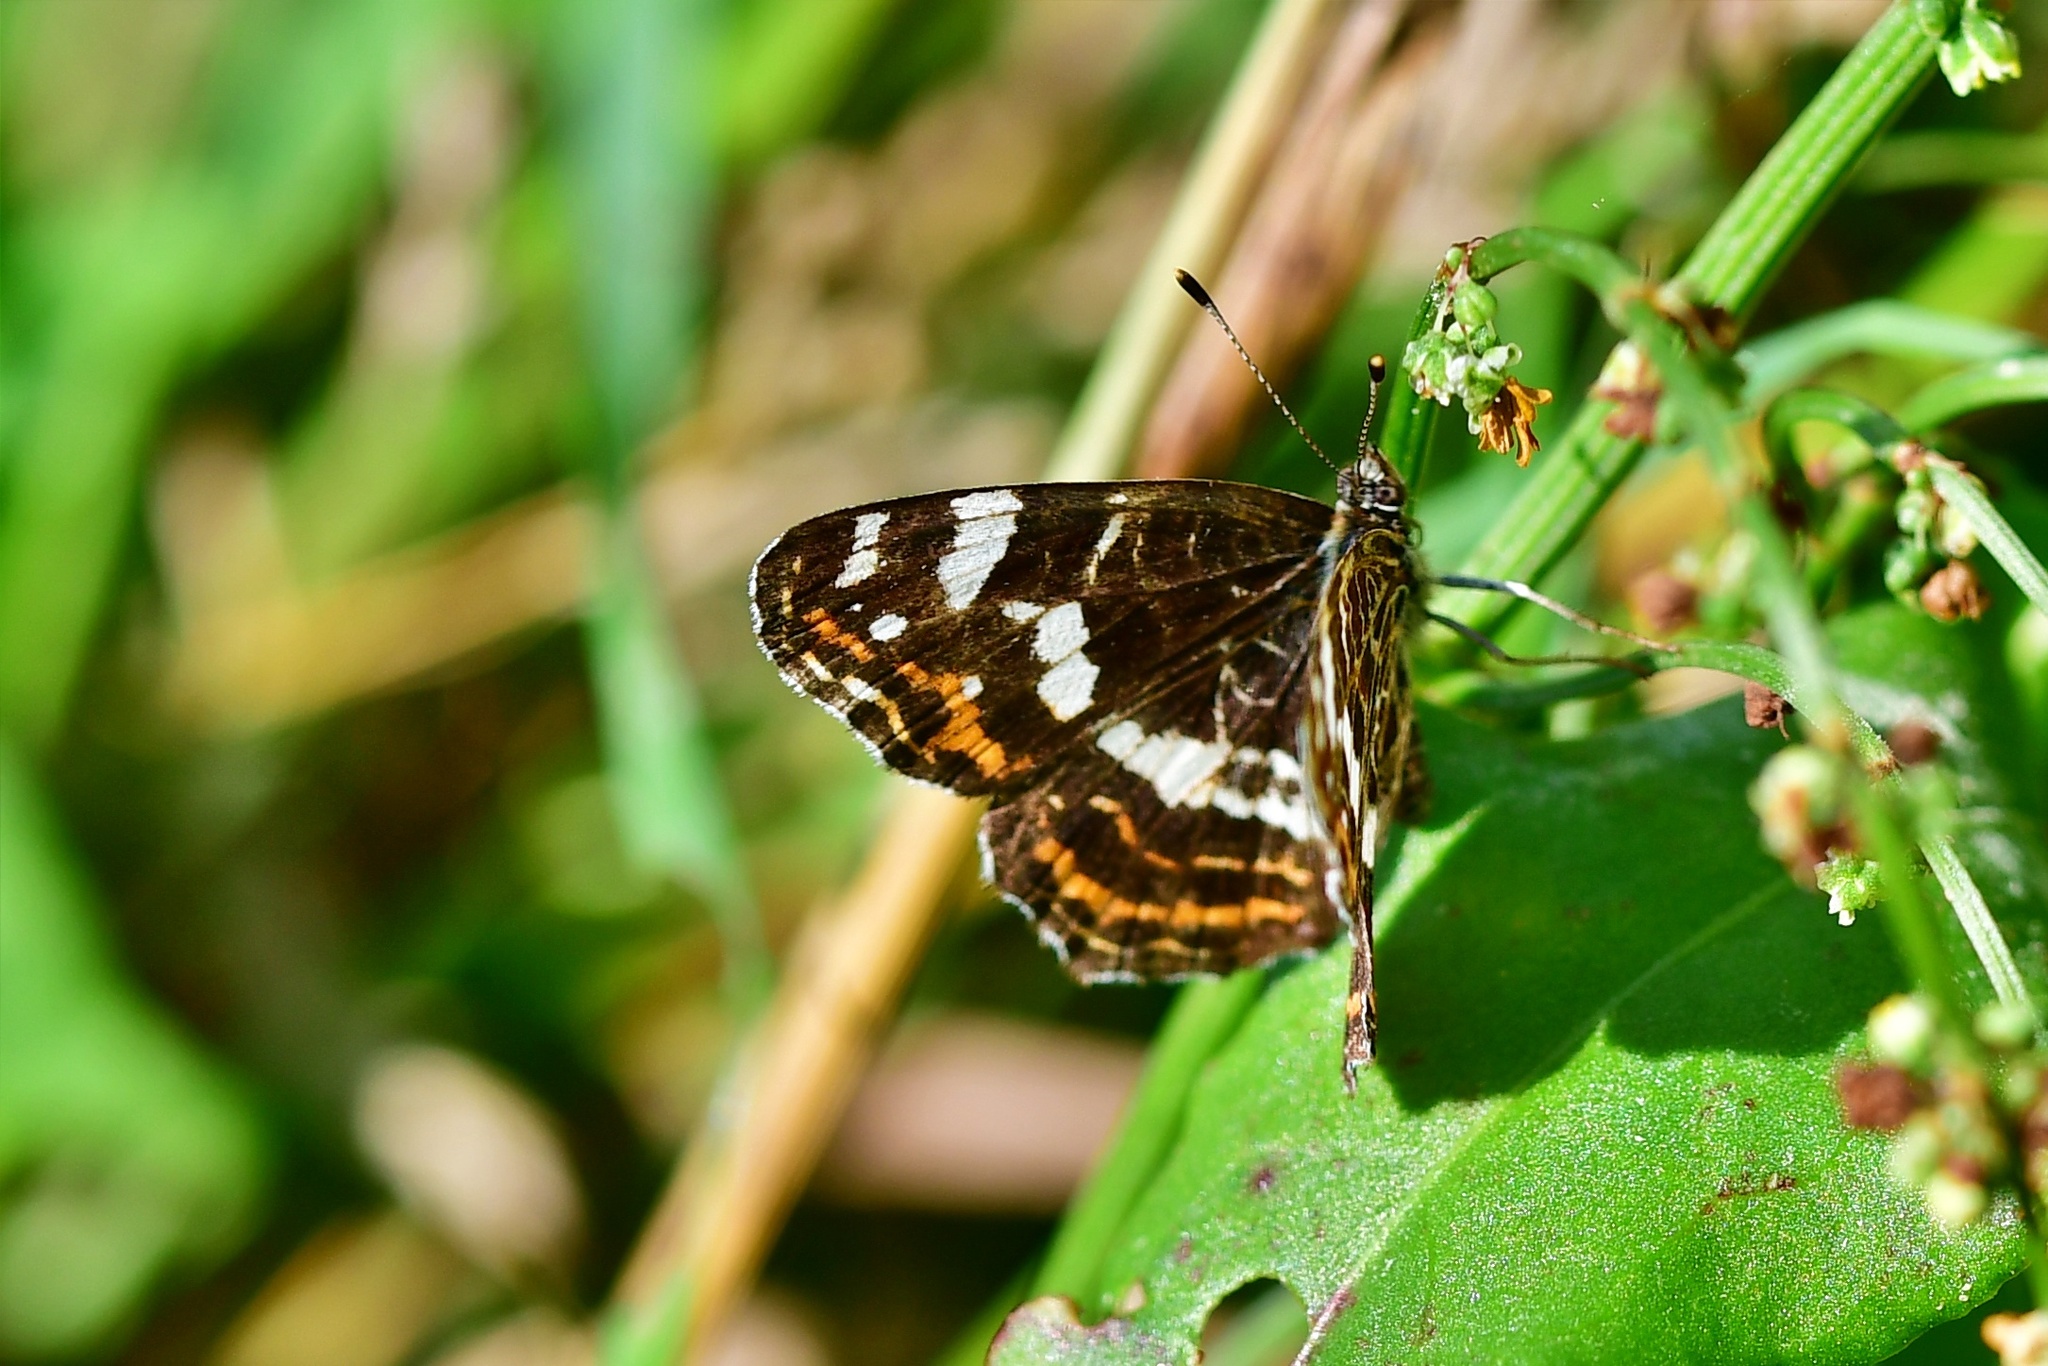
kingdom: Animalia
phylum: Arthropoda
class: Insecta
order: Lepidoptera
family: Nymphalidae
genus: Araschnia
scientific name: Araschnia levana
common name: Map butterfly
